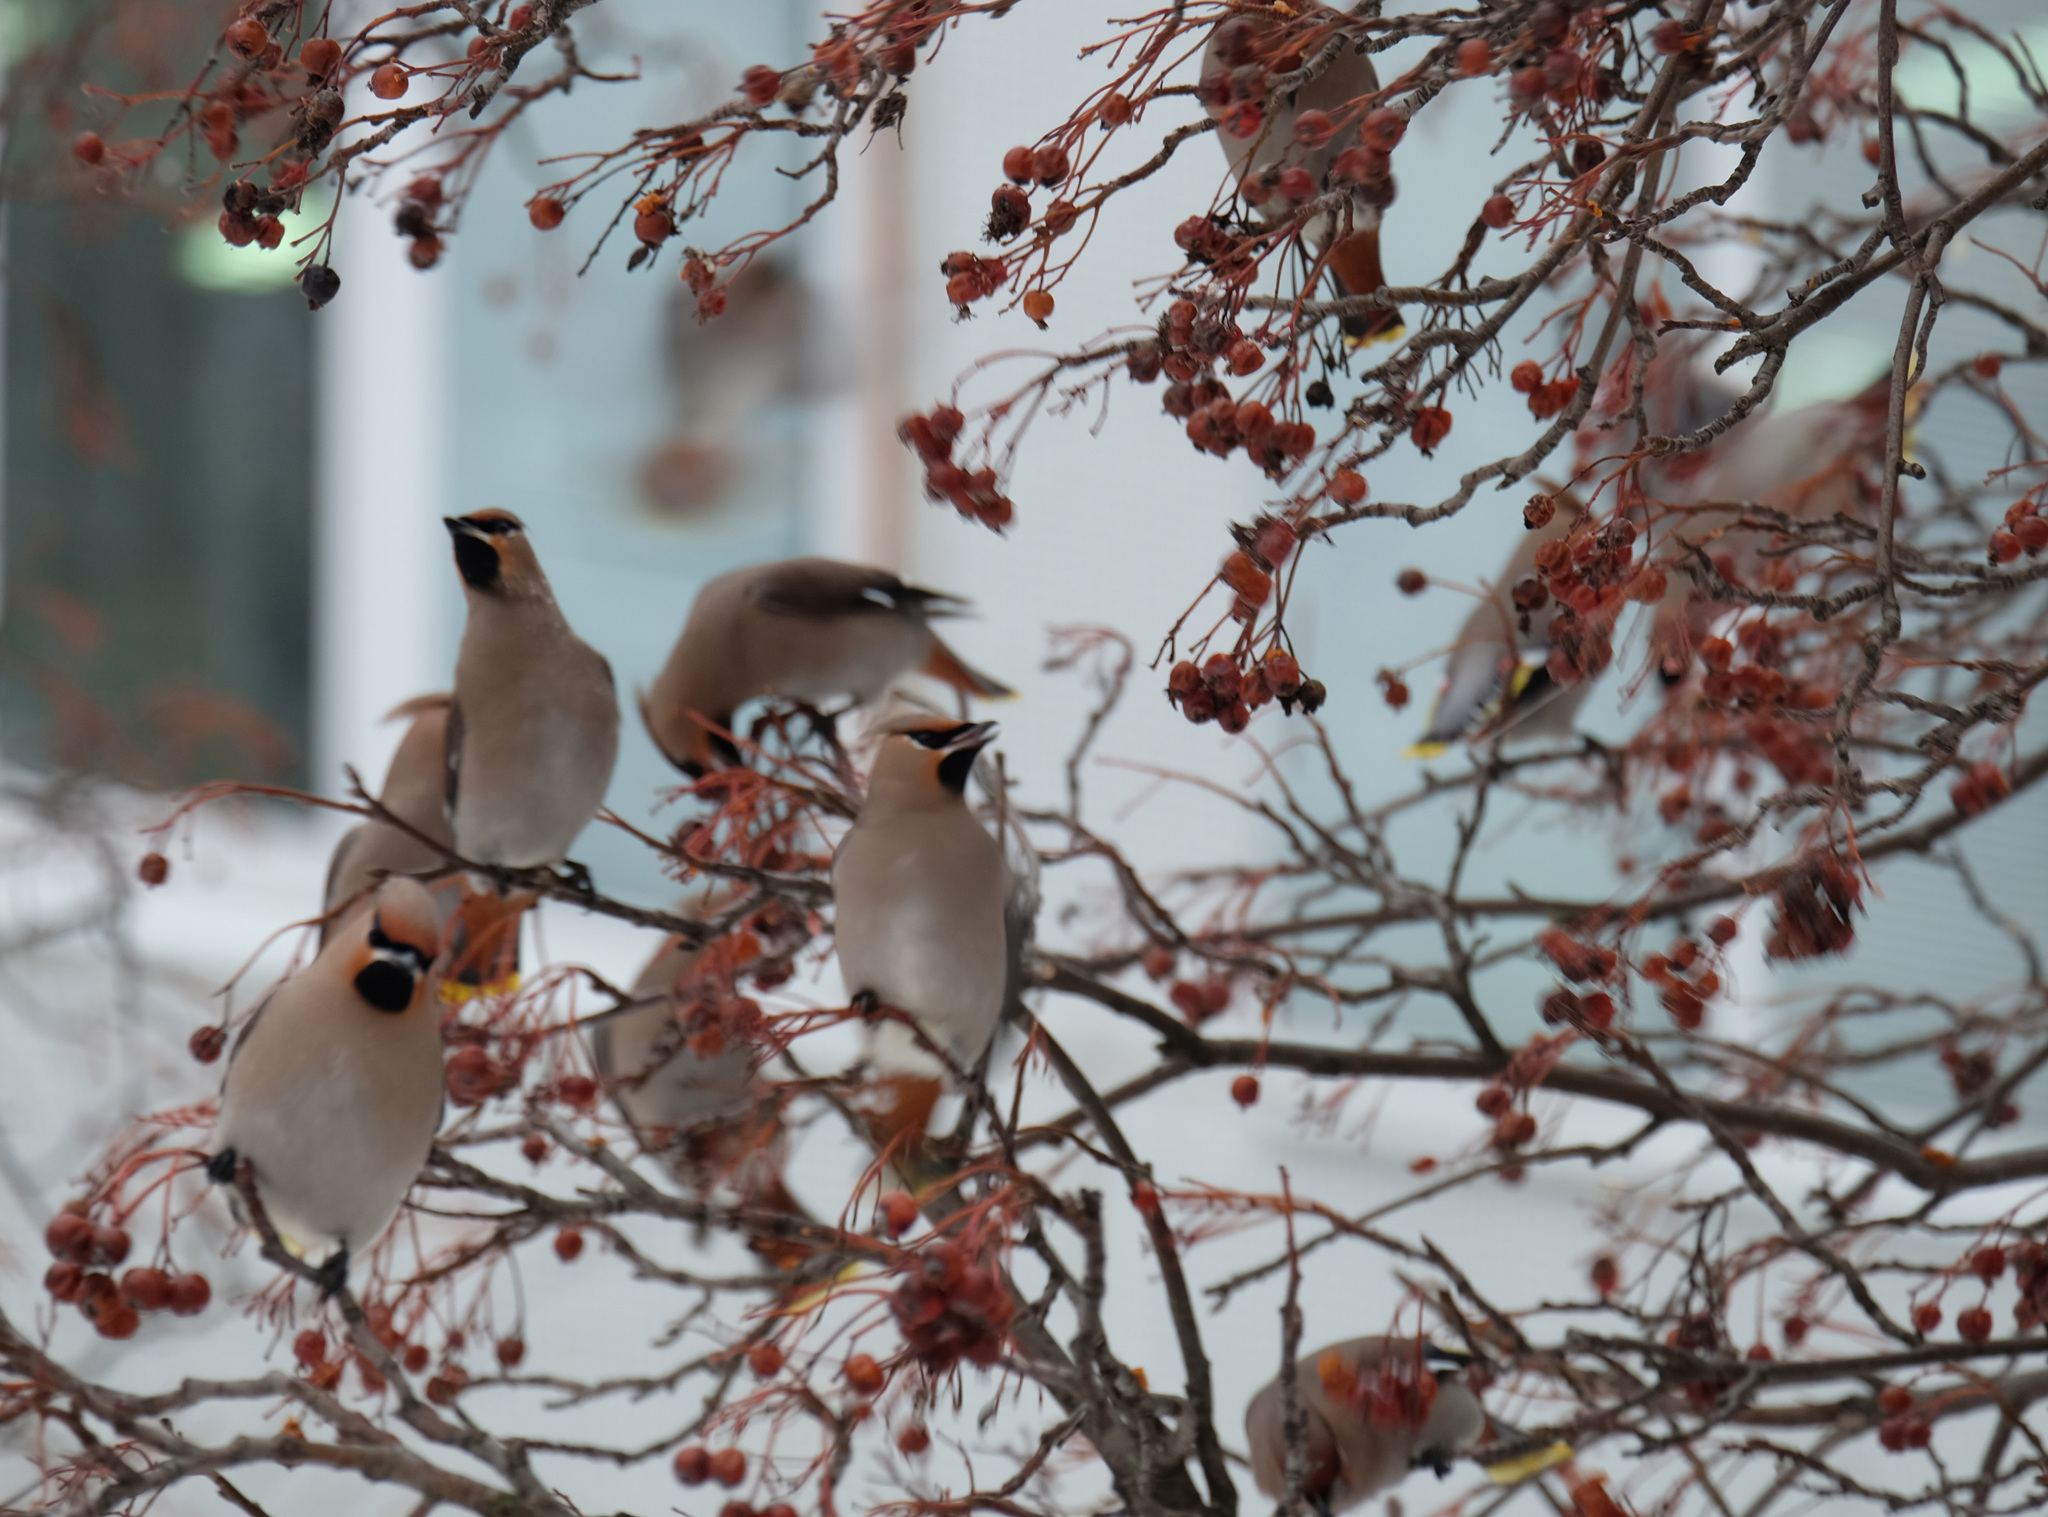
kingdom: Animalia
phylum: Chordata
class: Aves
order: Passeriformes
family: Bombycillidae
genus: Bombycilla
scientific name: Bombycilla garrulus
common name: Bohemian waxwing
